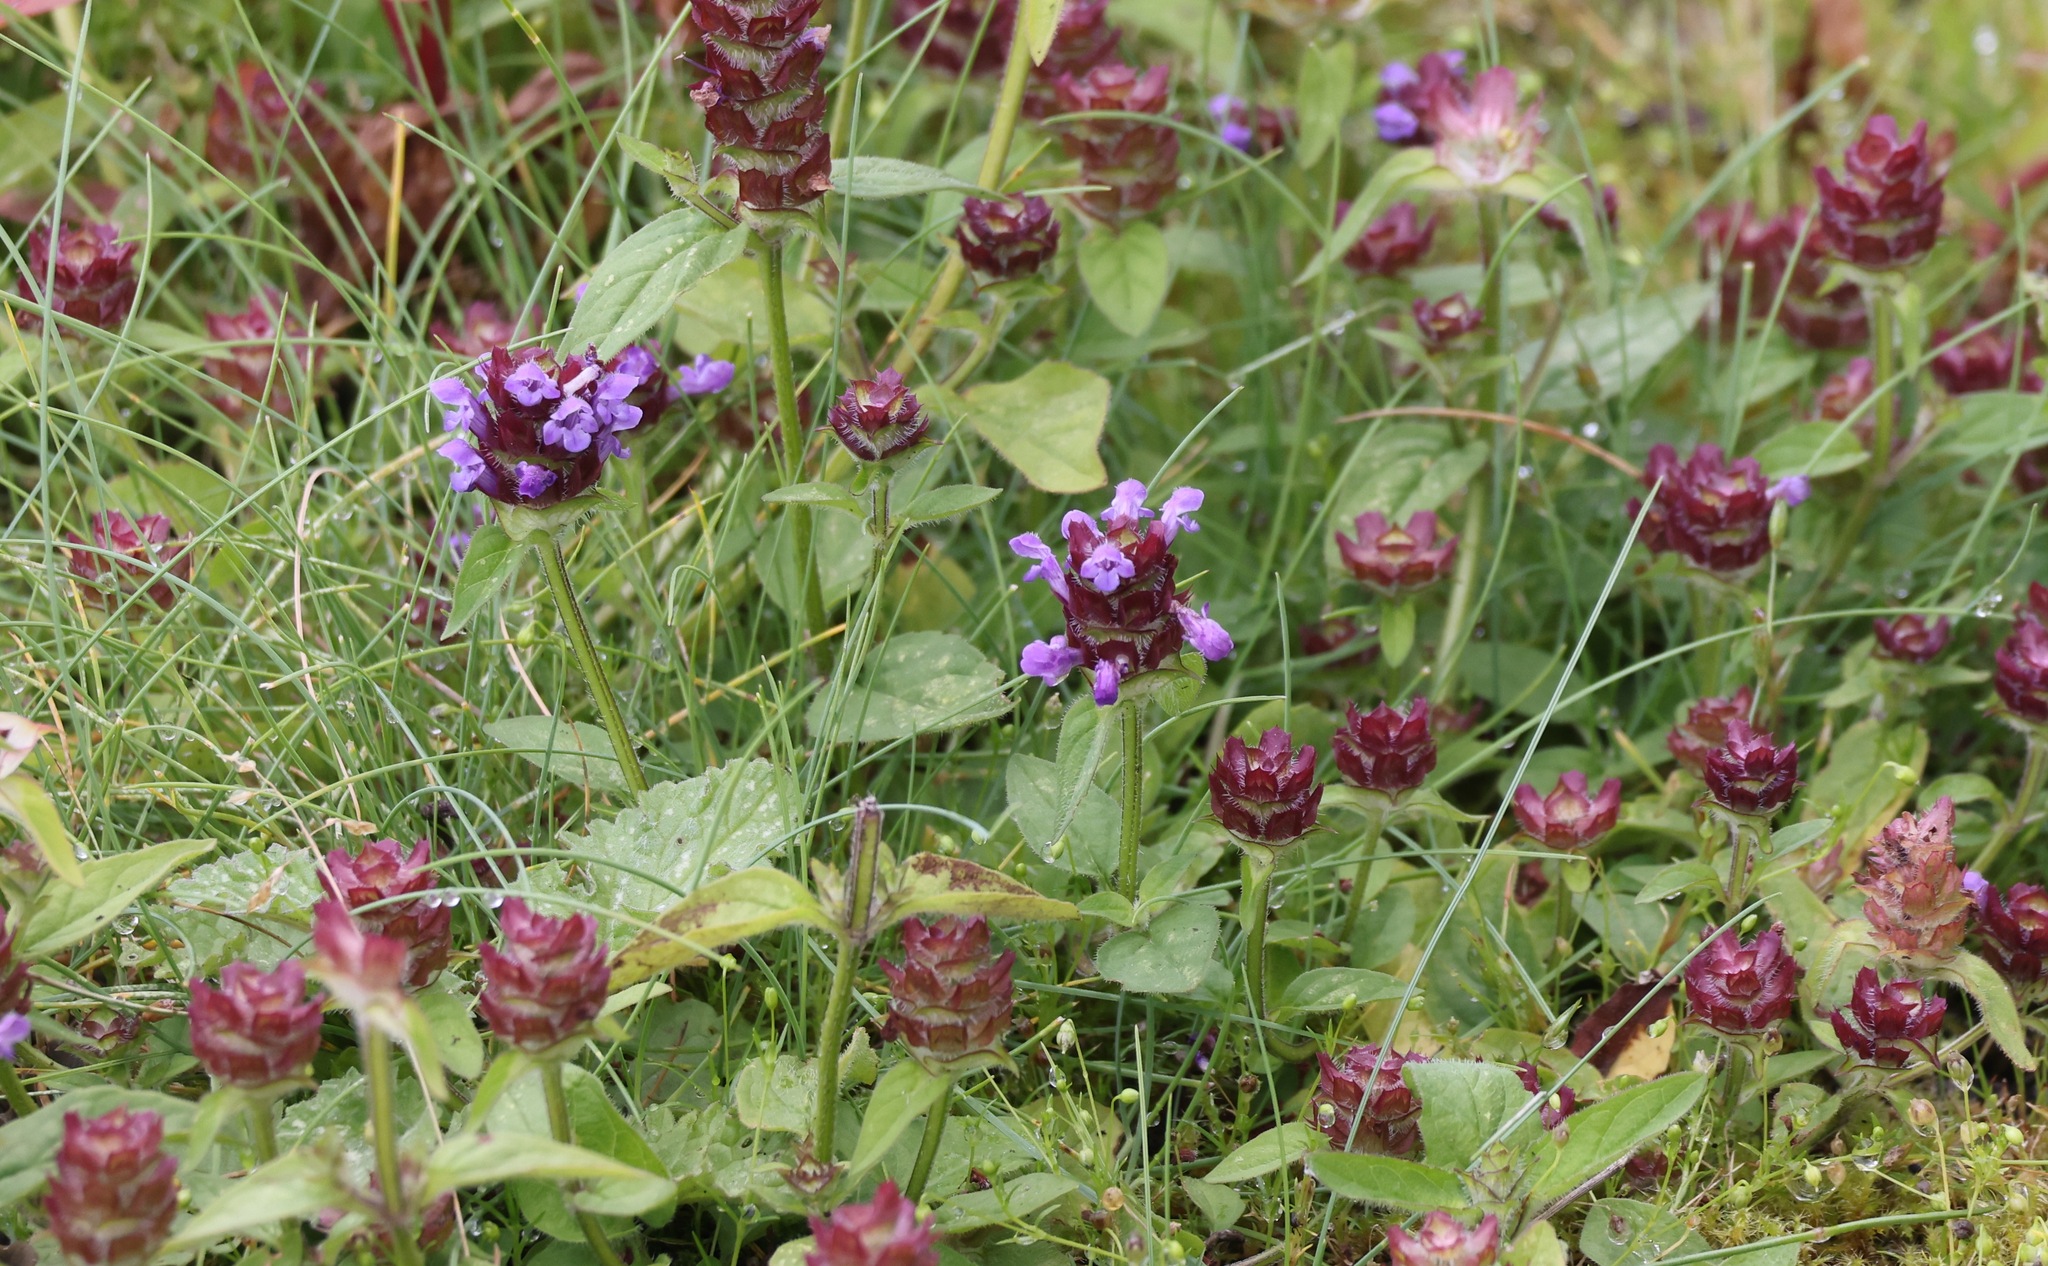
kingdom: Plantae
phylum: Tracheophyta
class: Magnoliopsida
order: Lamiales
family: Lamiaceae
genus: Prunella
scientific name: Prunella vulgaris
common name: Heal-all
